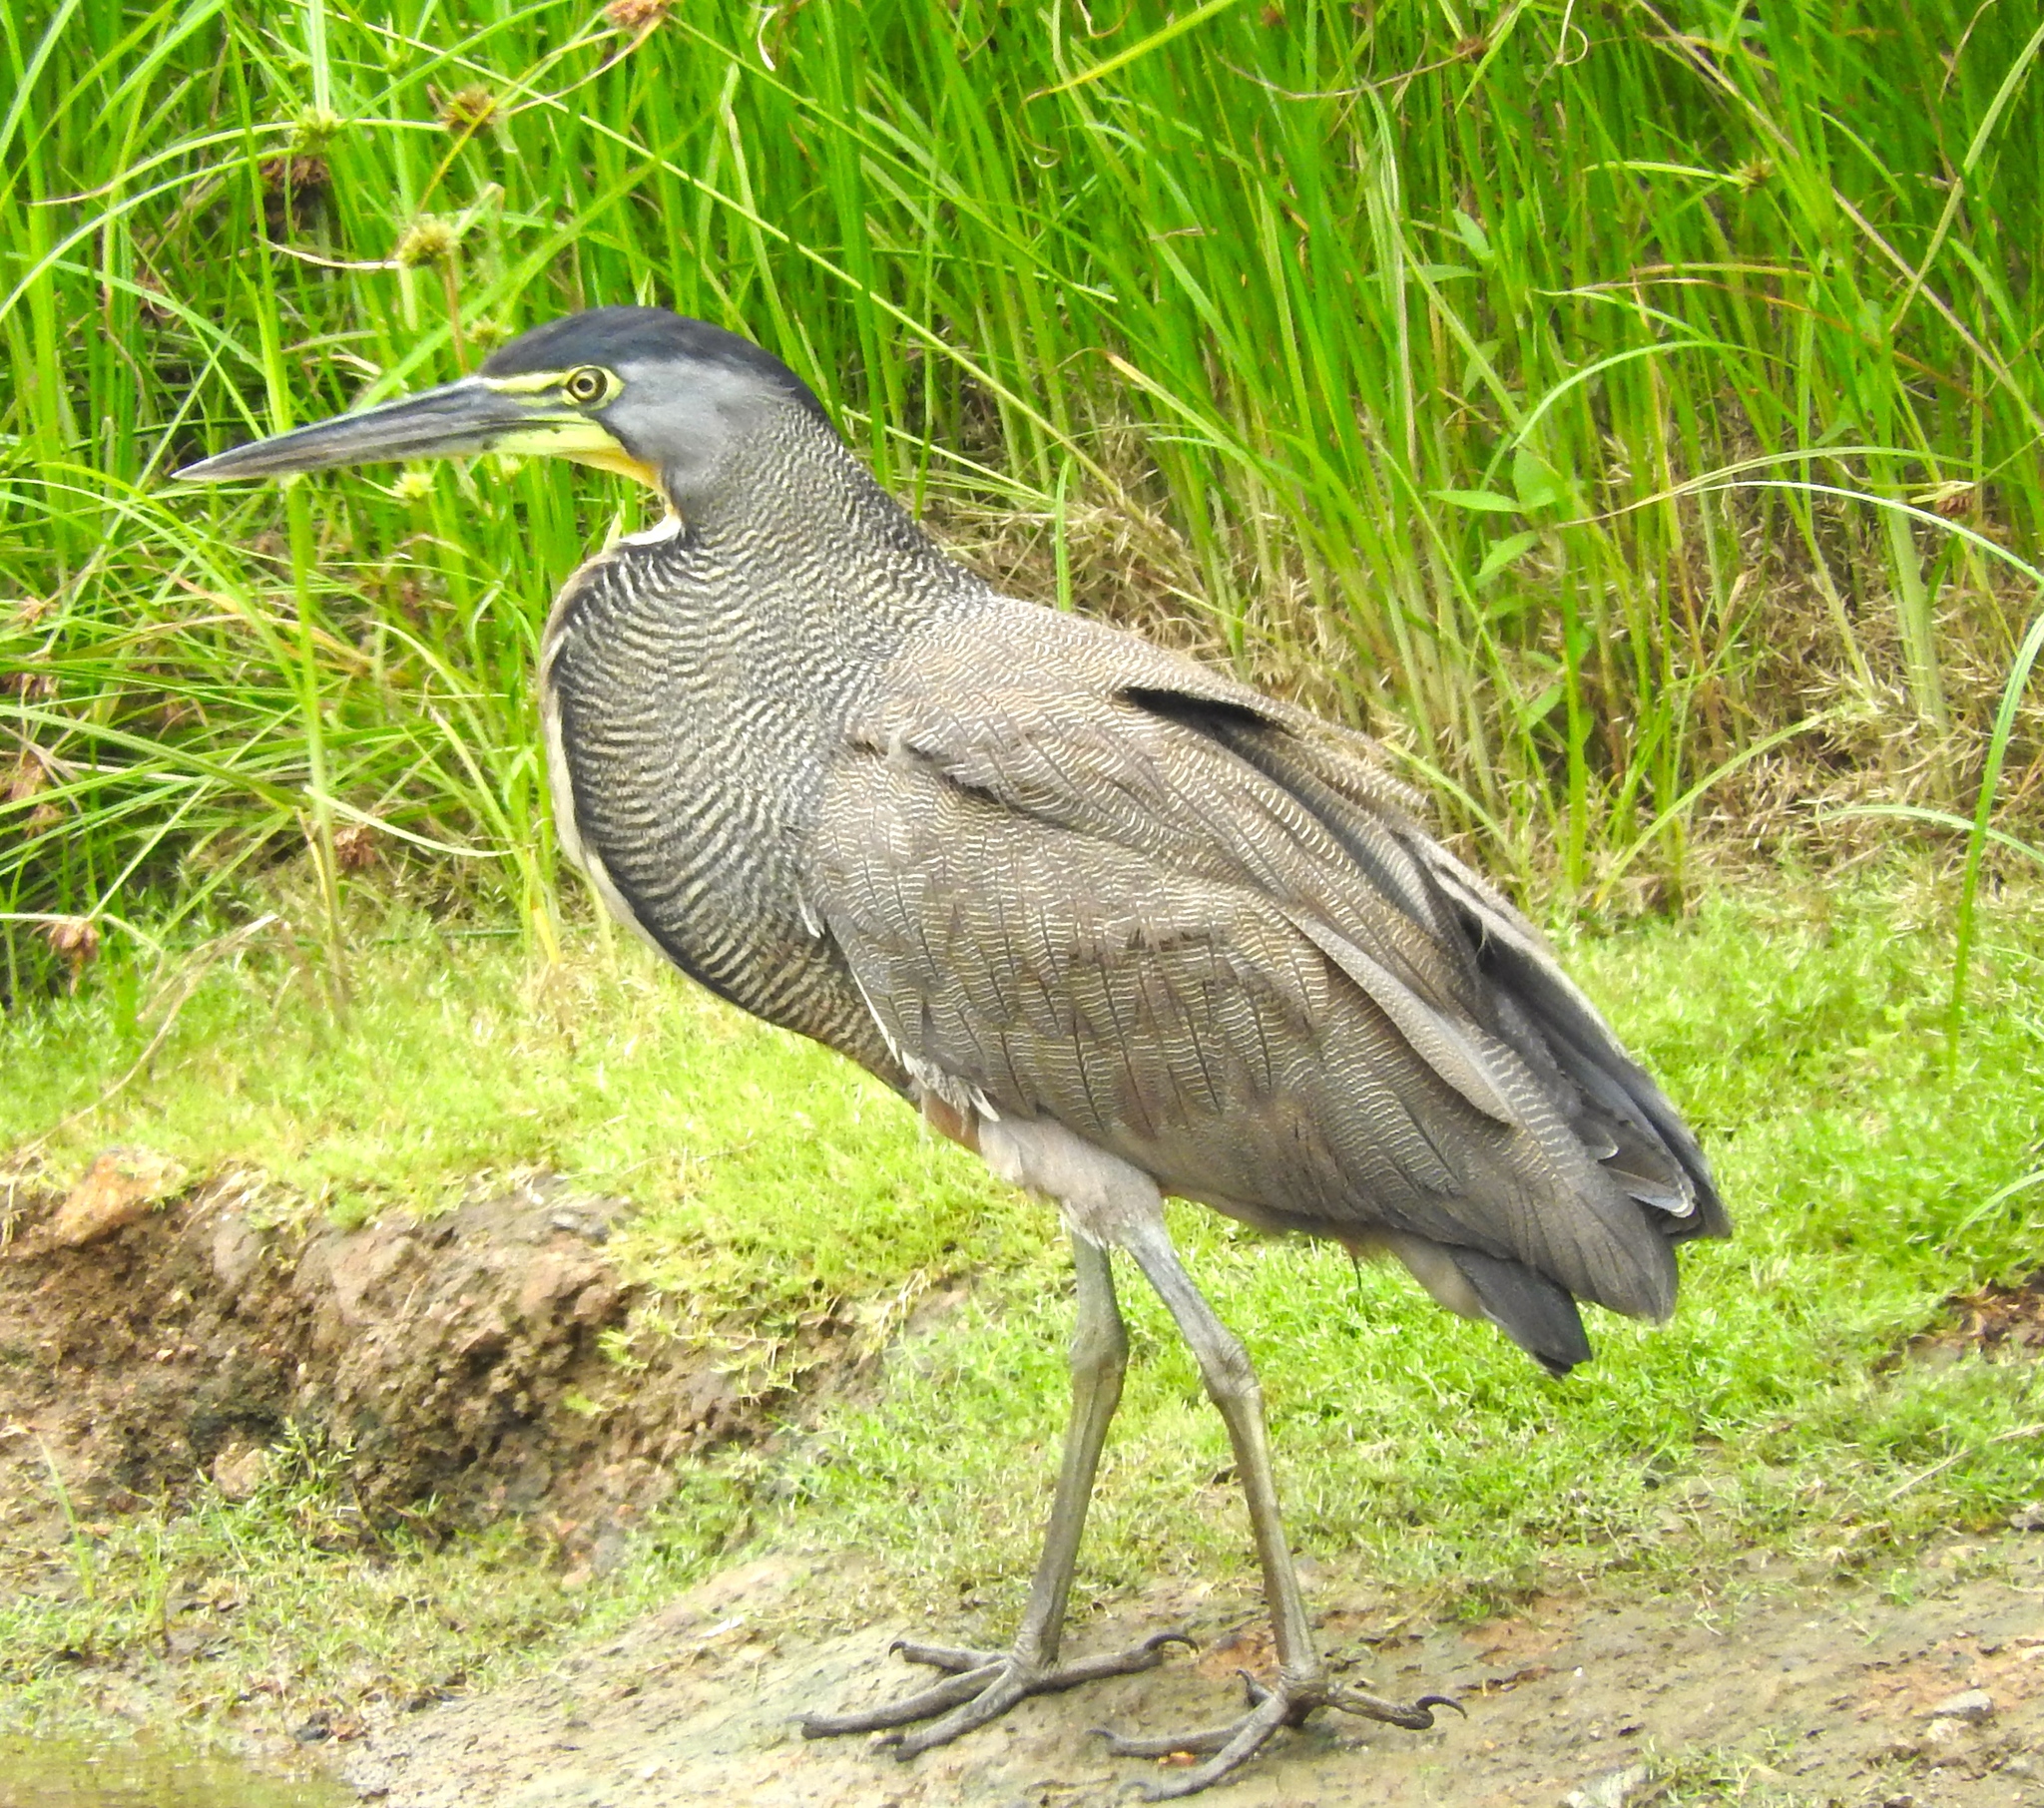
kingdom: Animalia
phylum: Chordata
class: Aves
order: Pelecaniformes
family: Ardeidae
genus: Tigrisoma
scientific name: Tigrisoma mexicanum
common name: Bare-throated tiger-heron
